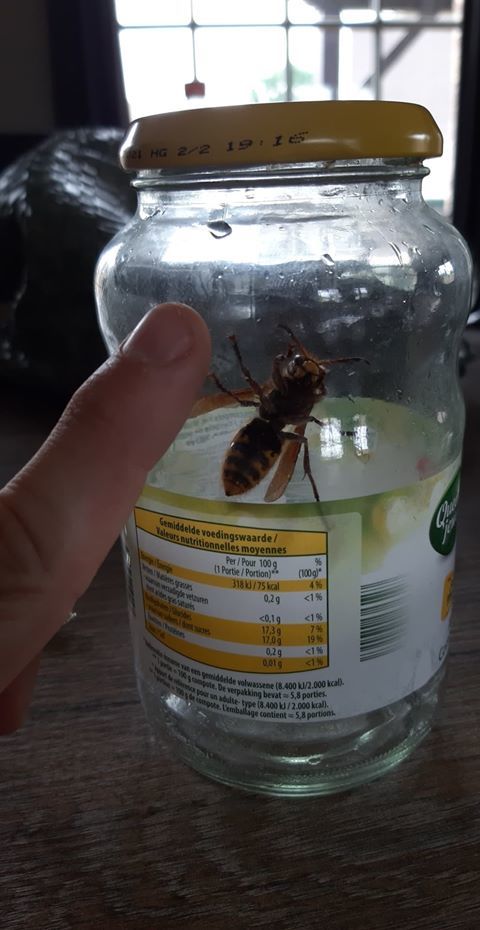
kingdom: Animalia
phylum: Arthropoda
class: Insecta
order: Hymenoptera
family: Vespidae
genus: Vespa
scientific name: Vespa crabro
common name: Hornet
